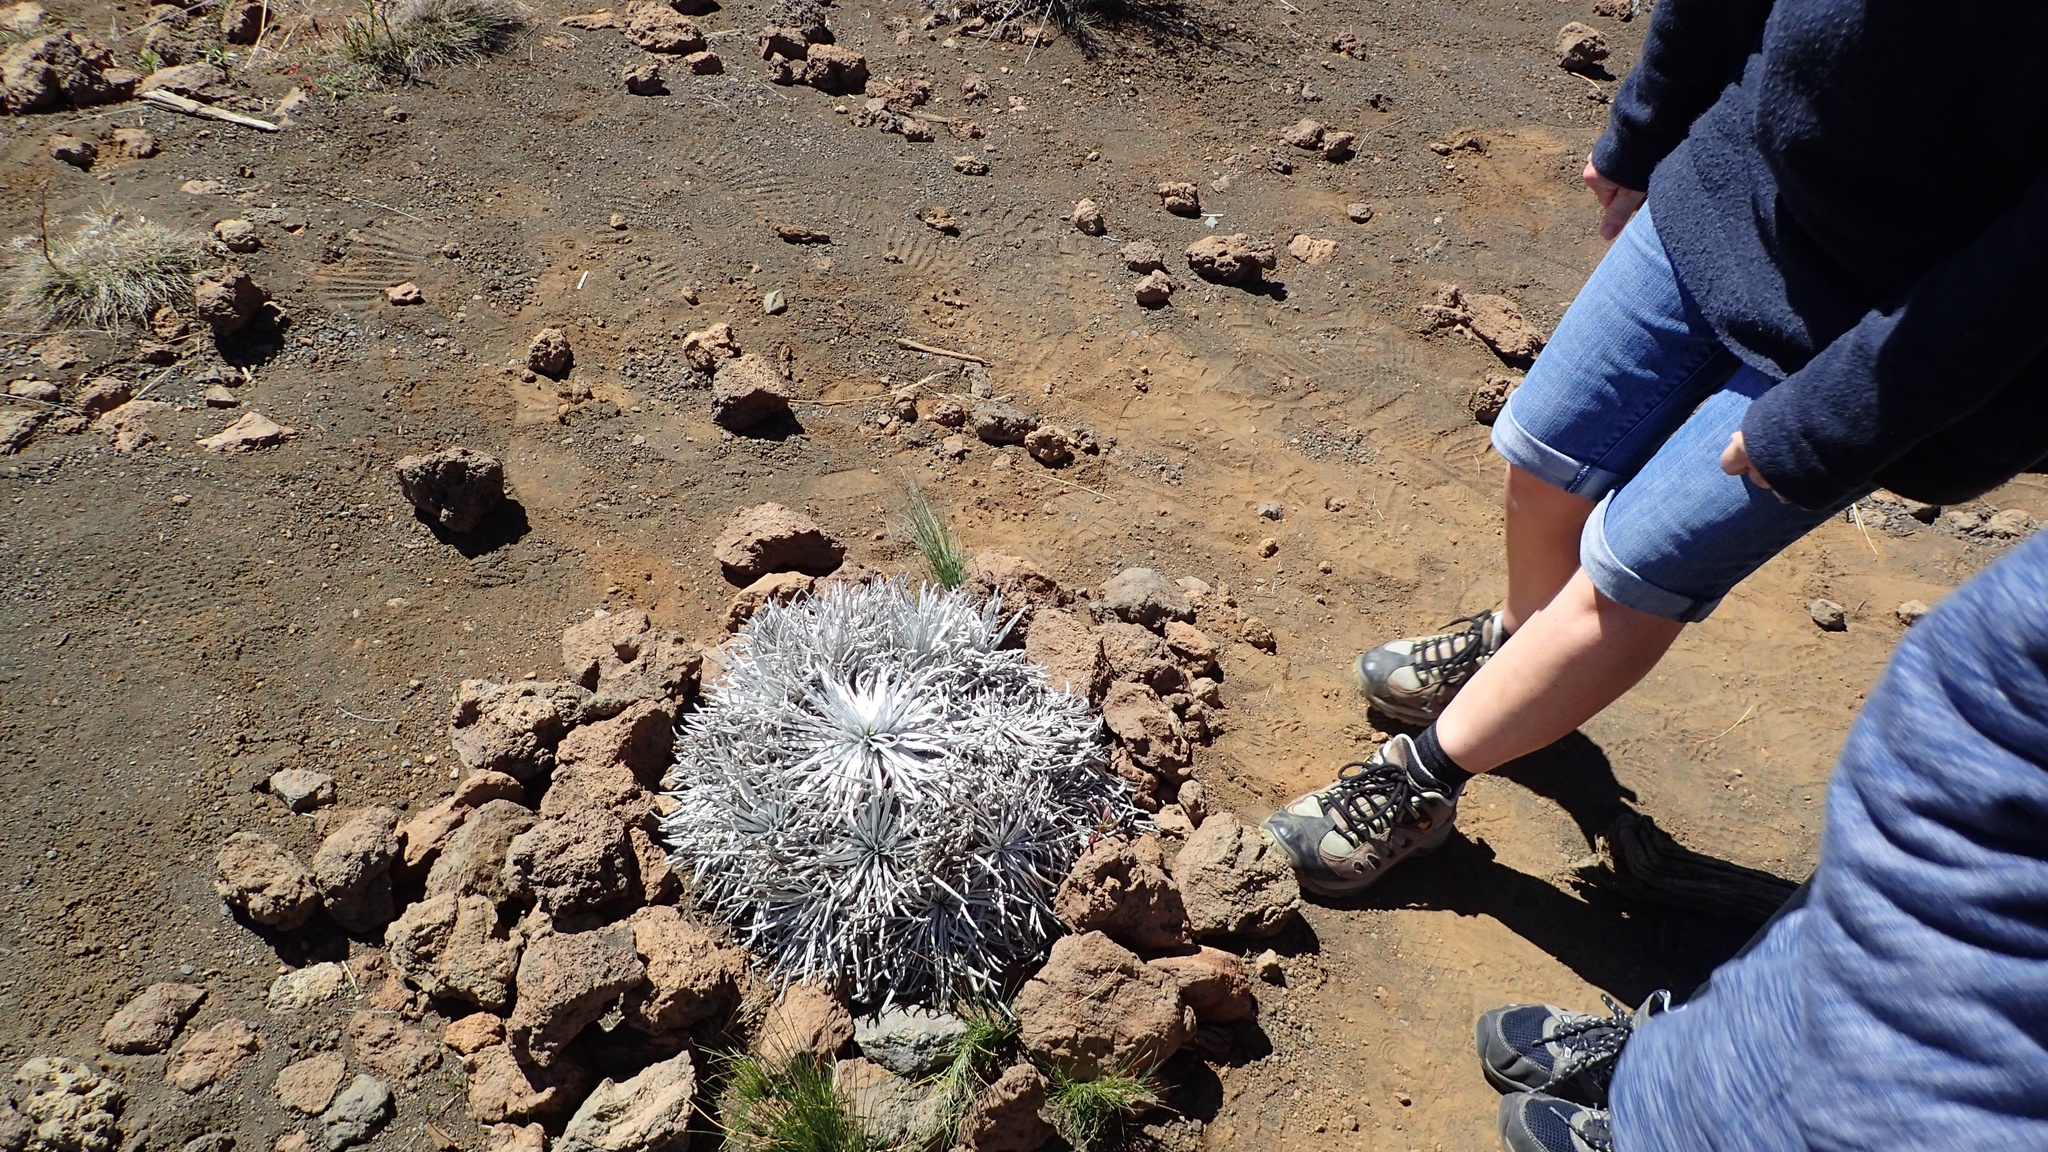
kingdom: Plantae
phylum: Tracheophyta
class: Magnoliopsida
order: Asterales
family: Asteraceae
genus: Argyroxiphium
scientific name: Argyroxiphium sandwicense
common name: Silversword
